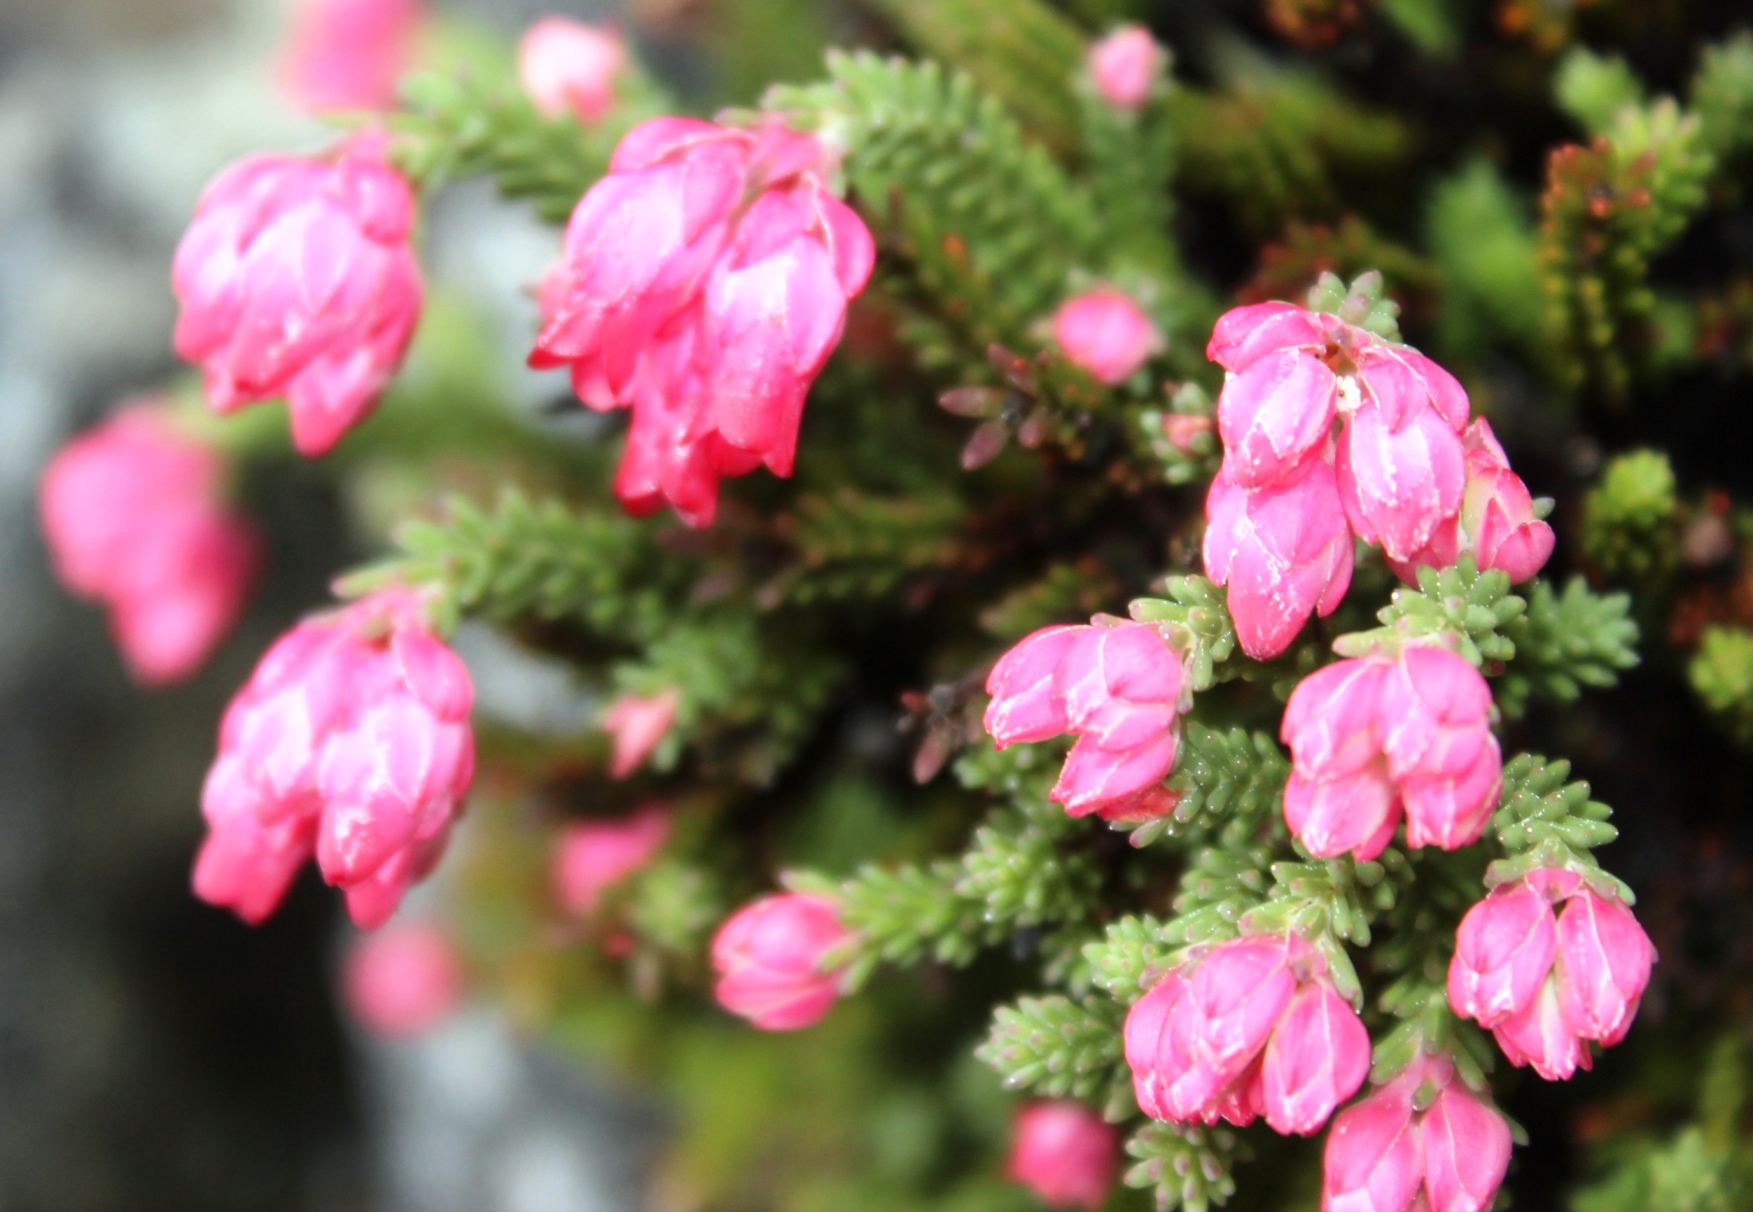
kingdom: Plantae
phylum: Tracheophyta
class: Magnoliopsida
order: Ericales
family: Ericaceae
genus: Erica
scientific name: Erica tegulifolia
